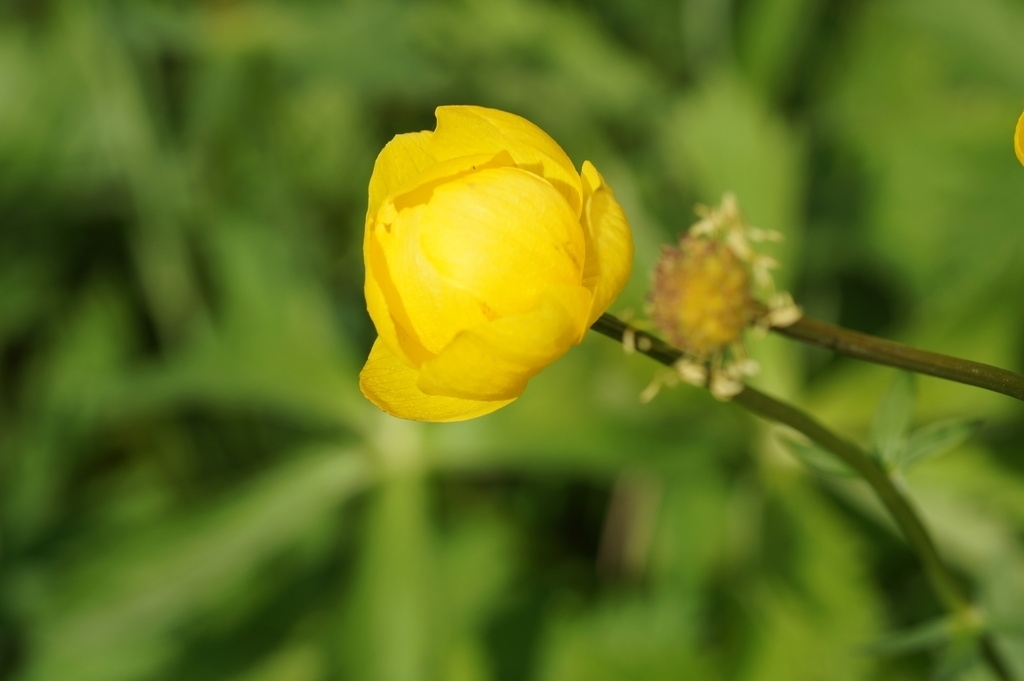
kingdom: Plantae
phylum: Tracheophyta
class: Magnoliopsida
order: Ranunculales
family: Ranunculaceae
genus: Trollius
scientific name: Trollius europaeus
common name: European globeflower
